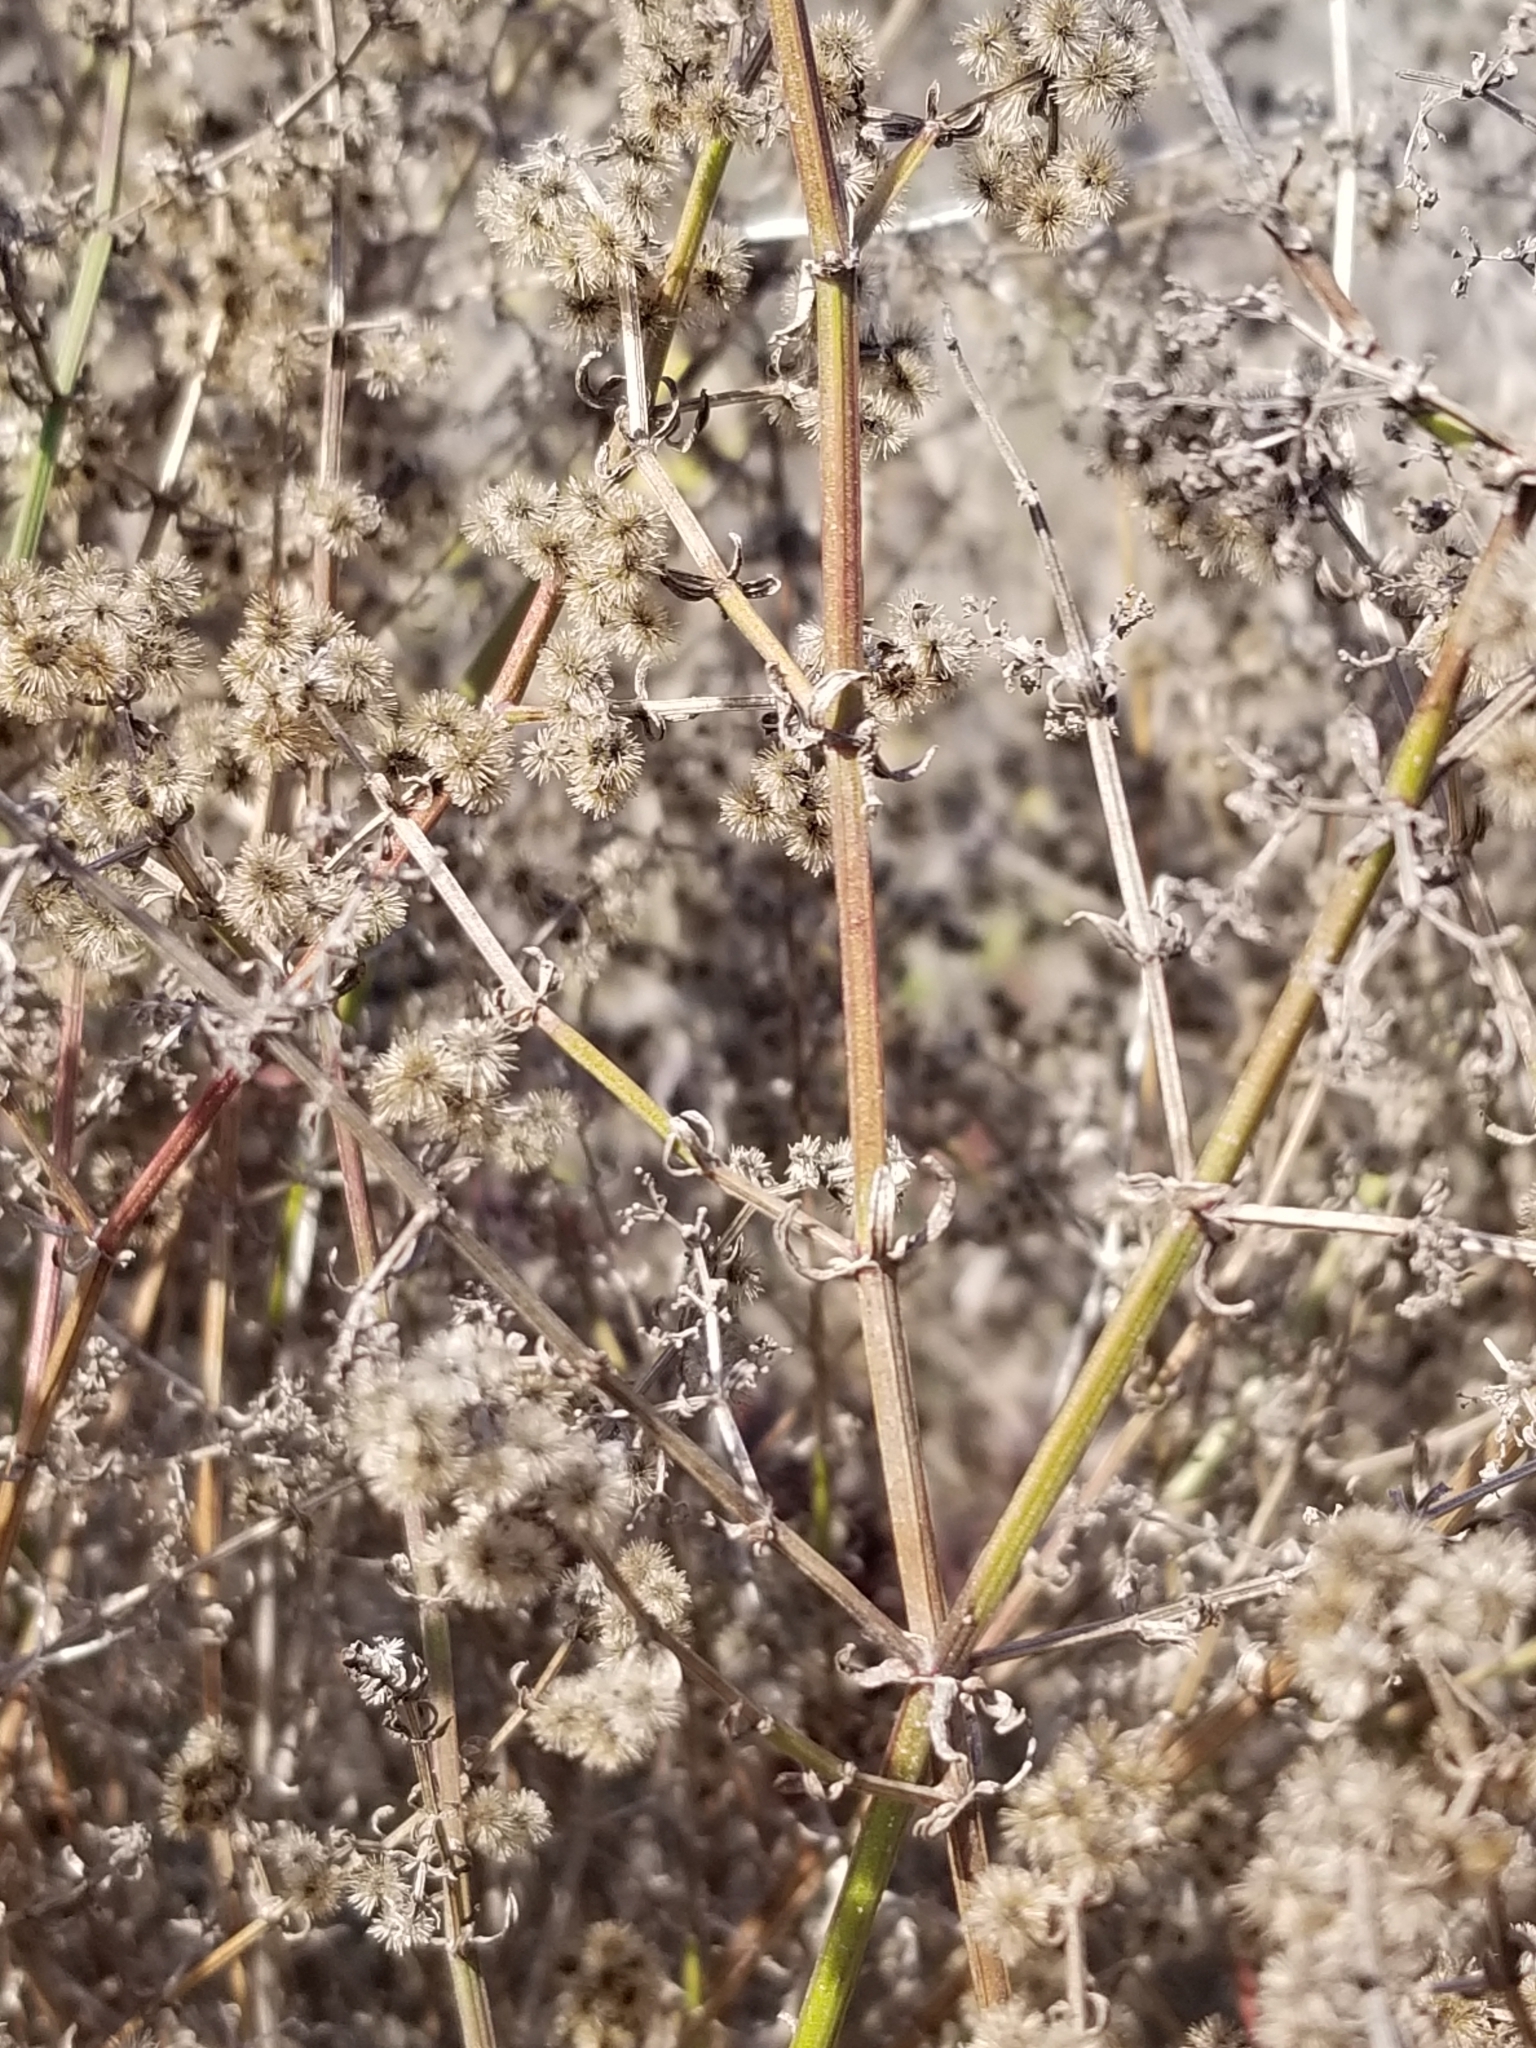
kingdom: Plantae
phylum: Tracheophyta
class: Magnoliopsida
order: Gentianales
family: Rubiaceae
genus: Galium
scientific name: Galium angustifolium
